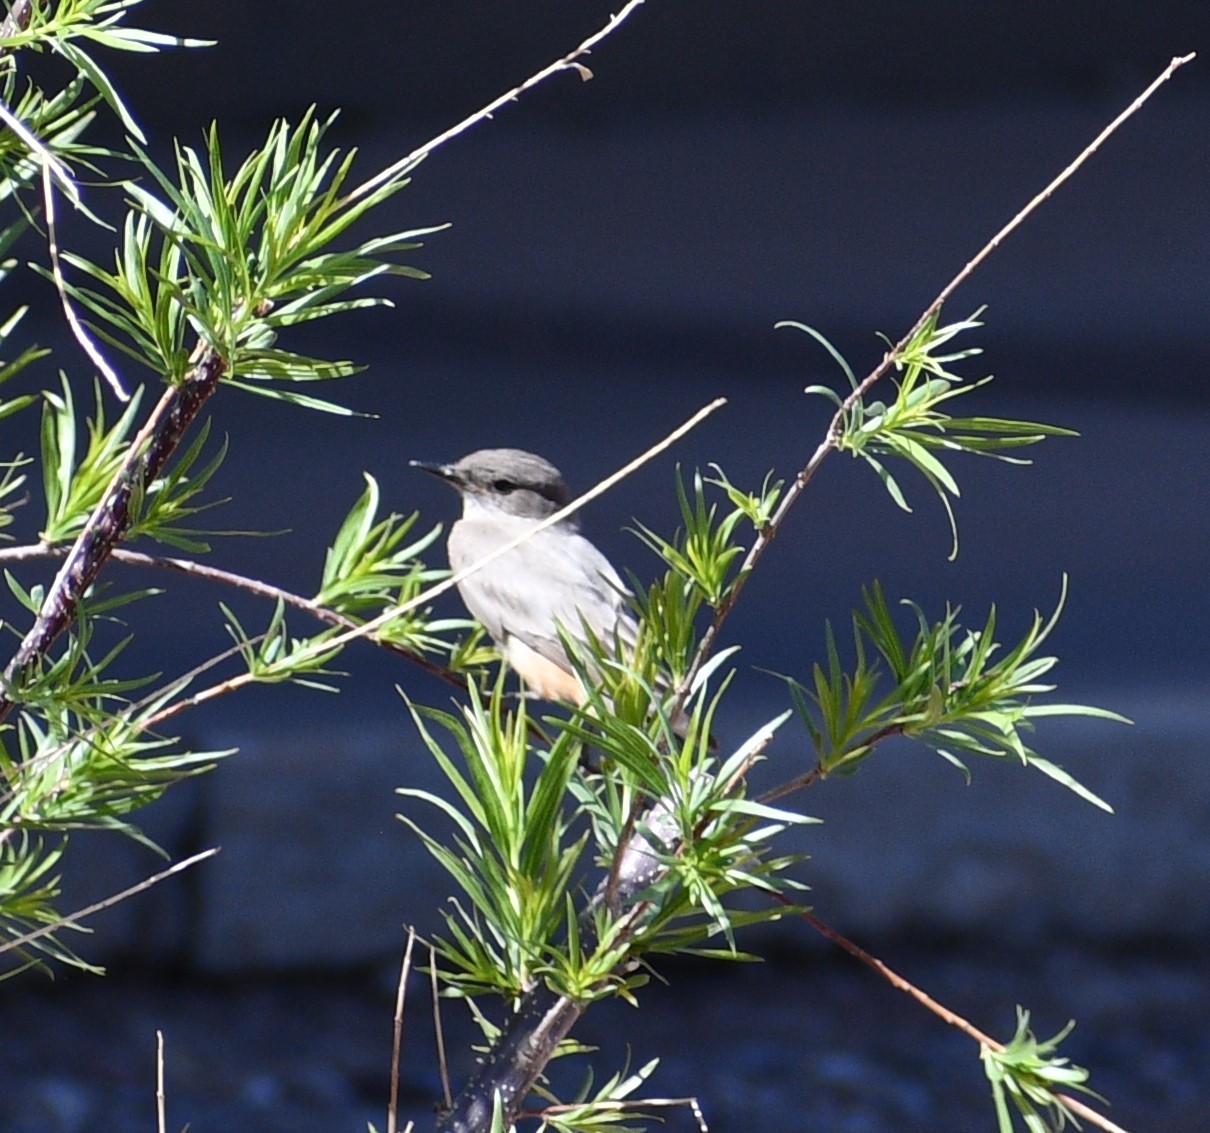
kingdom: Animalia
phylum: Chordata
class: Aves
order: Passeriformes
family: Tyrannidae
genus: Sayornis
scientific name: Sayornis saya
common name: Say's phoebe
